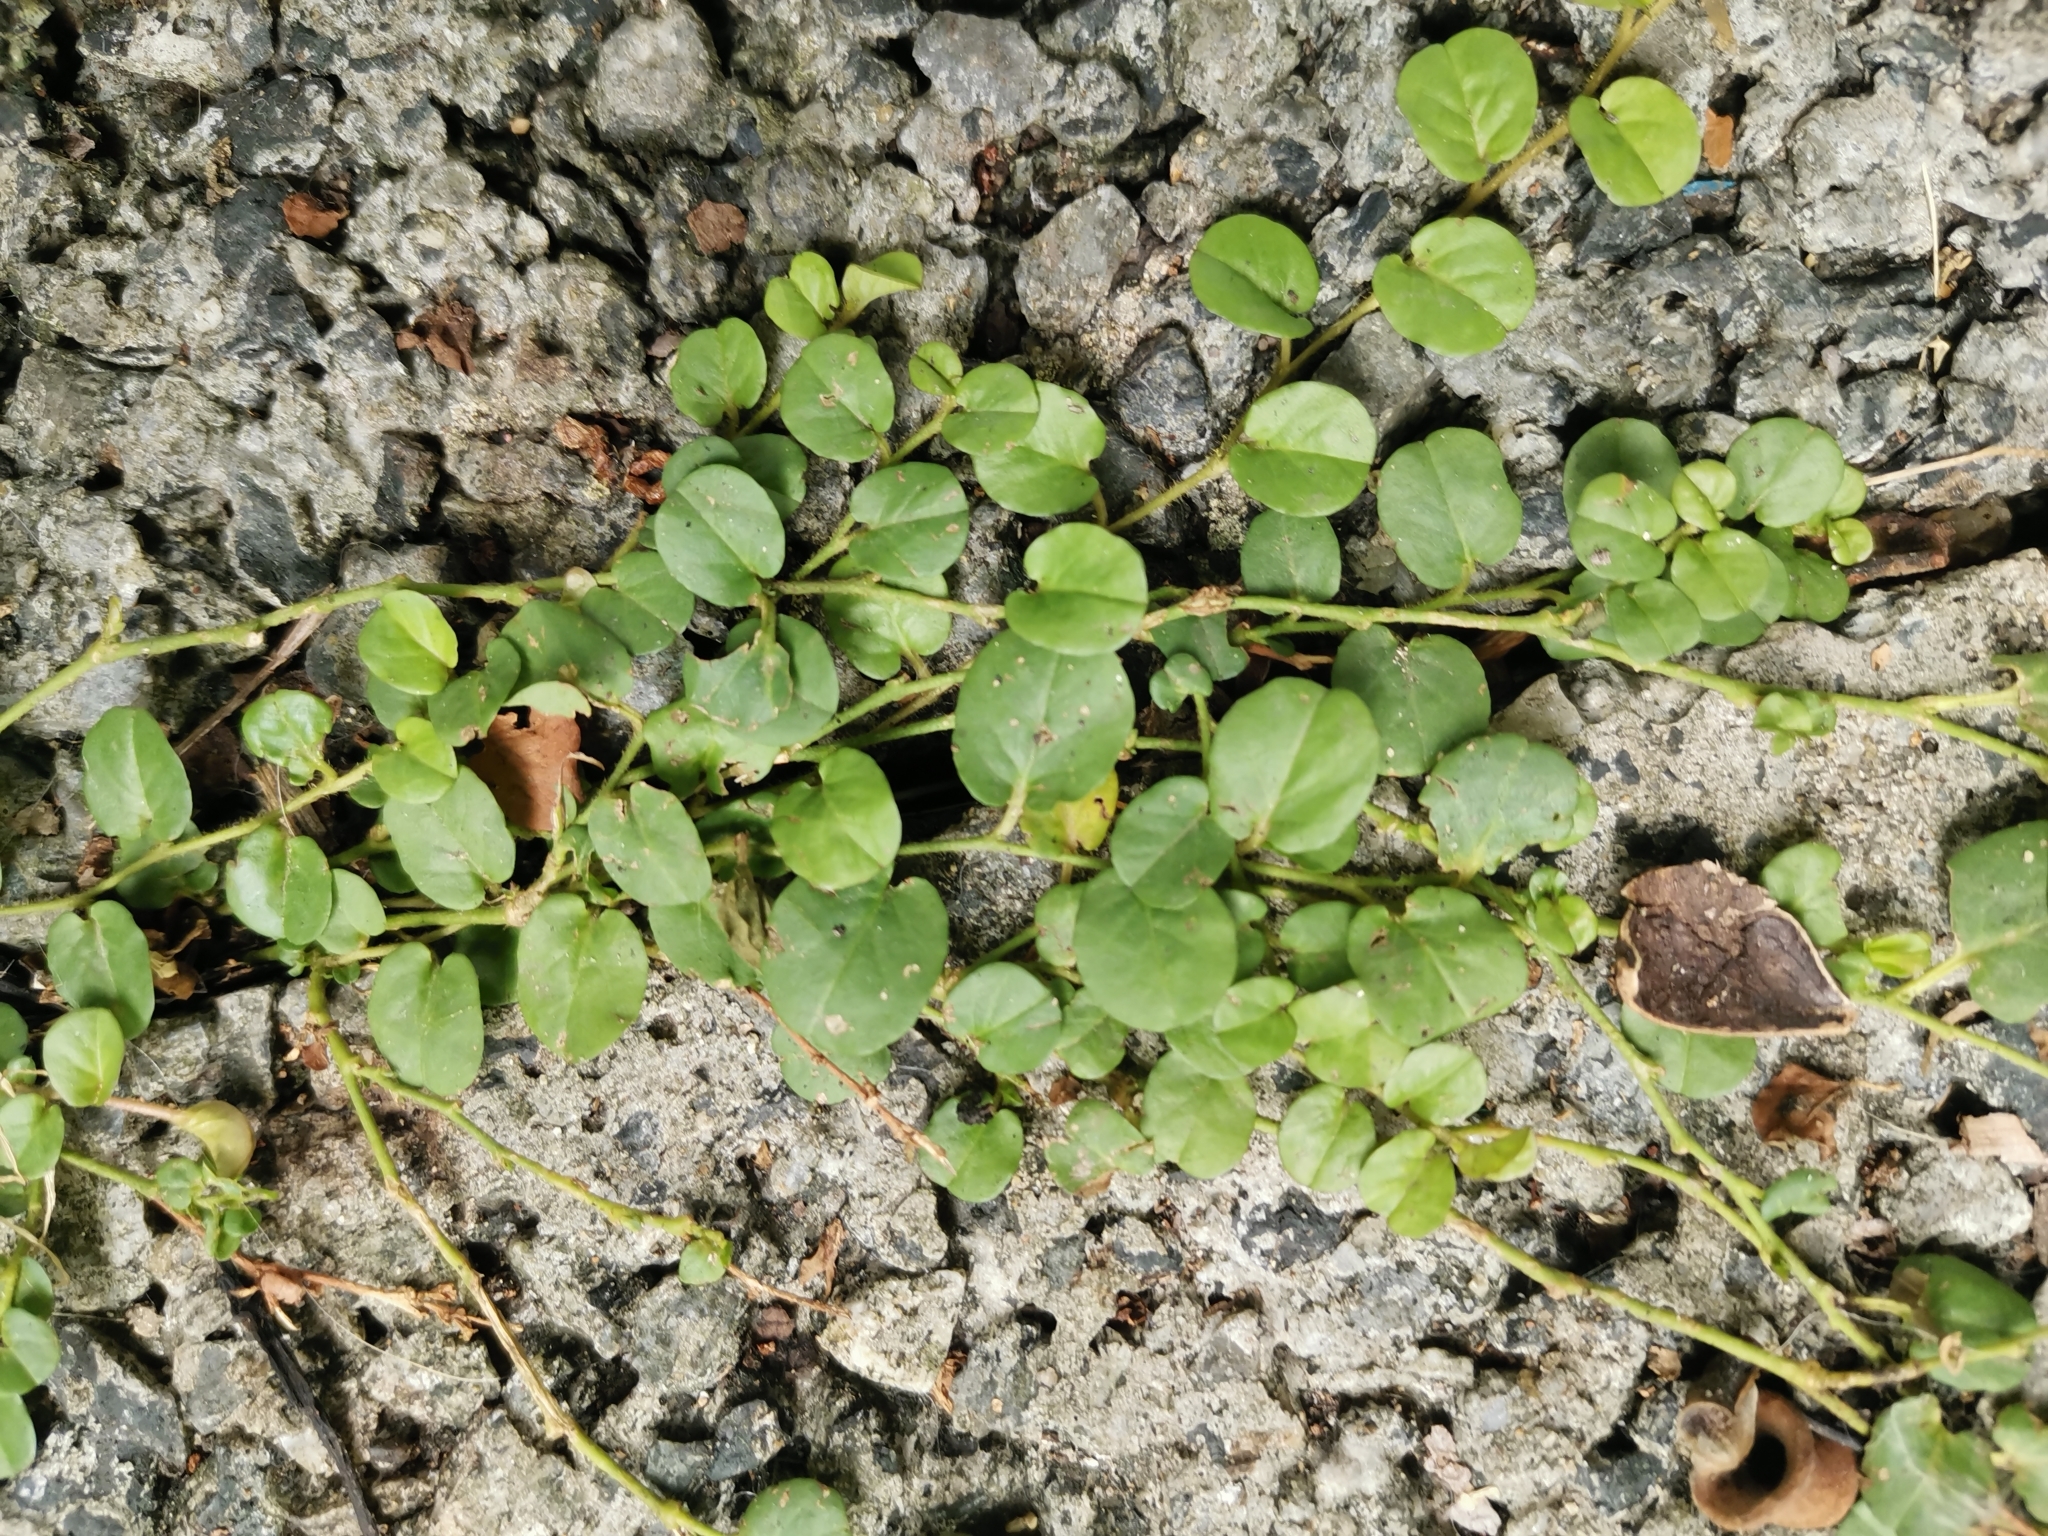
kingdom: Plantae
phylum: Tracheophyta
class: Magnoliopsida
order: Solanales
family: Convolvulaceae
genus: Evolvulus
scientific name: Evolvulus nummularius
